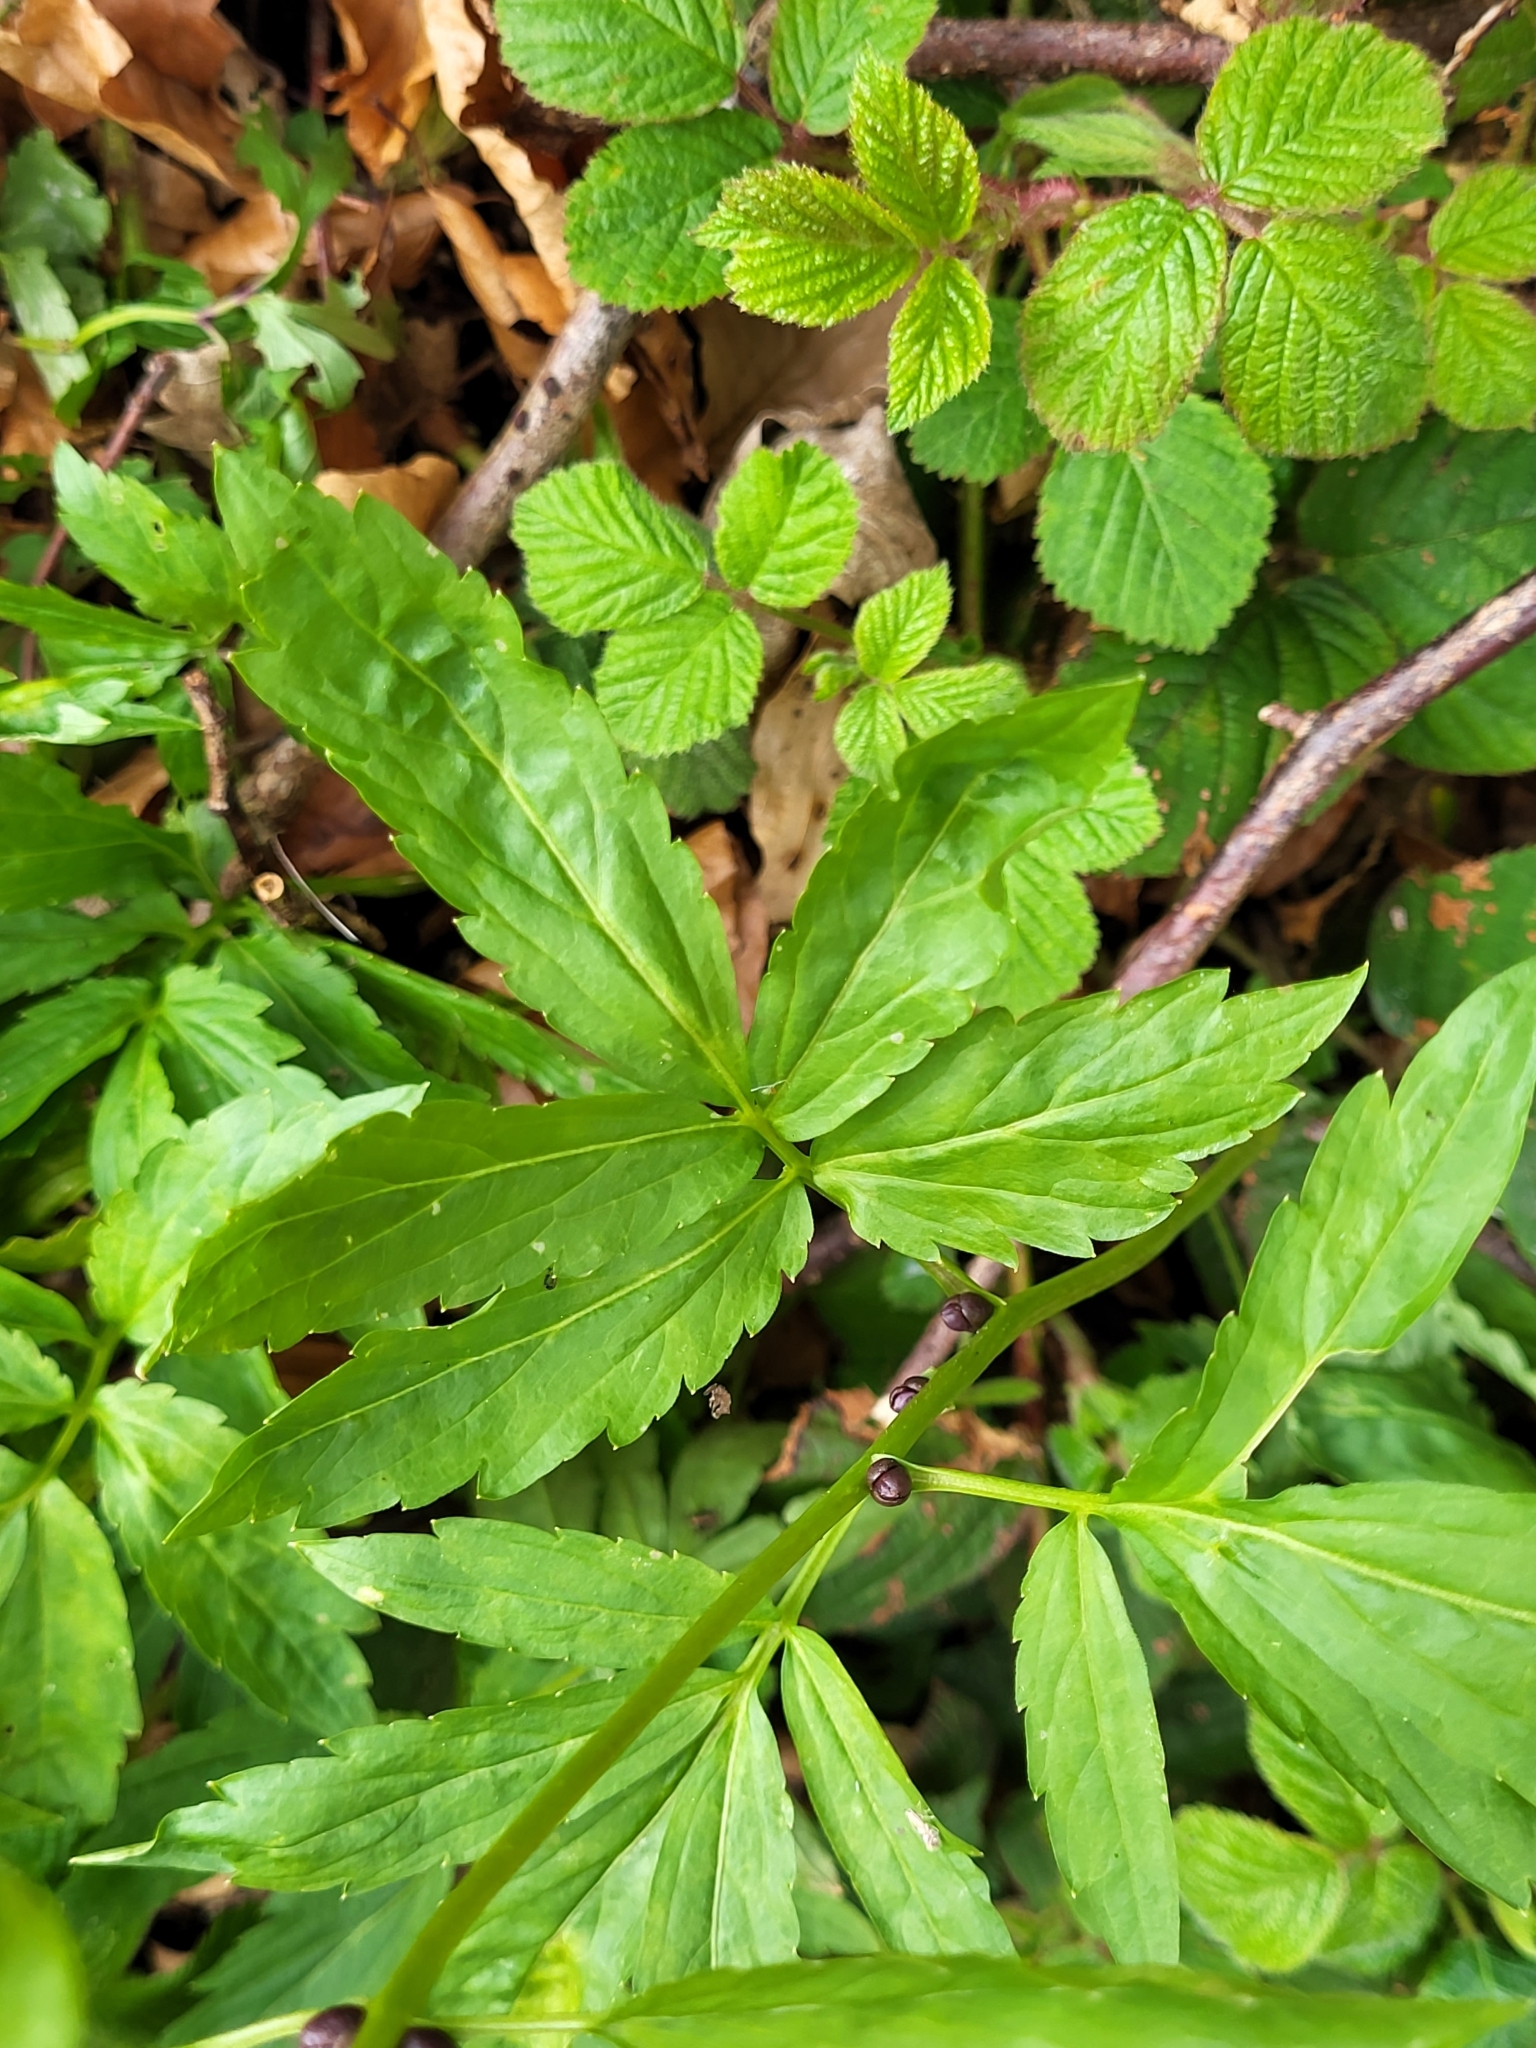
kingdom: Plantae
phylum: Tracheophyta
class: Magnoliopsida
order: Brassicales
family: Brassicaceae
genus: Cardamine
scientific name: Cardamine bulbifera
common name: Coralroot bittercress
